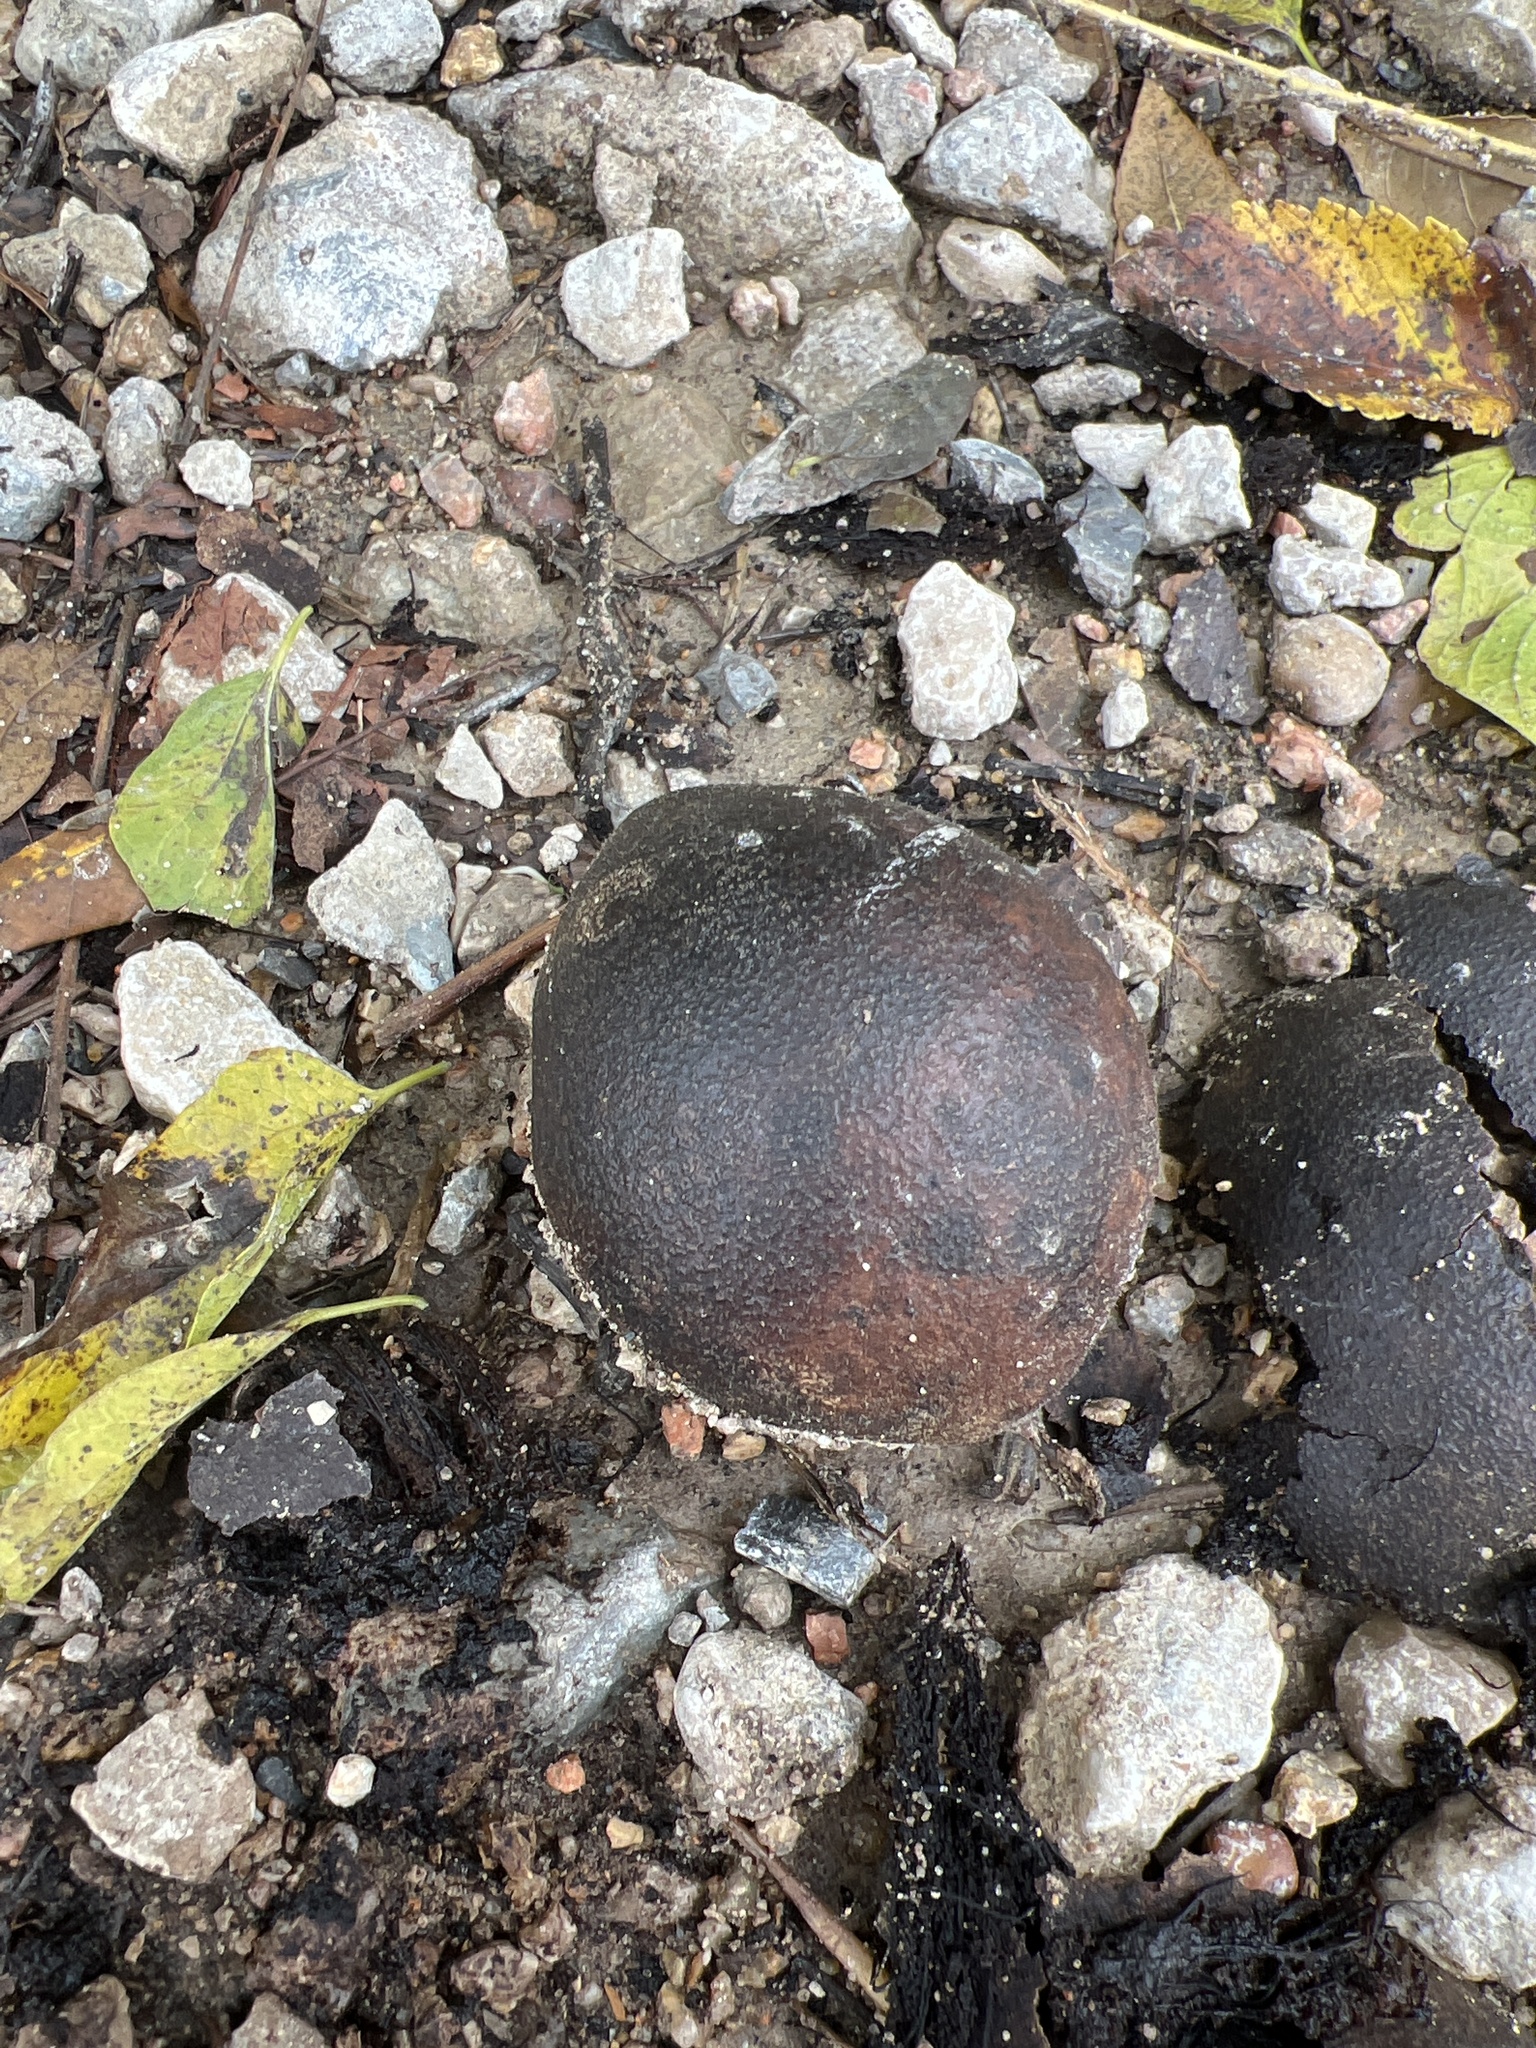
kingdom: Plantae
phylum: Tracheophyta
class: Magnoliopsida
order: Fagales
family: Juglandaceae
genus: Juglans
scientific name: Juglans nigra
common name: Black walnut
